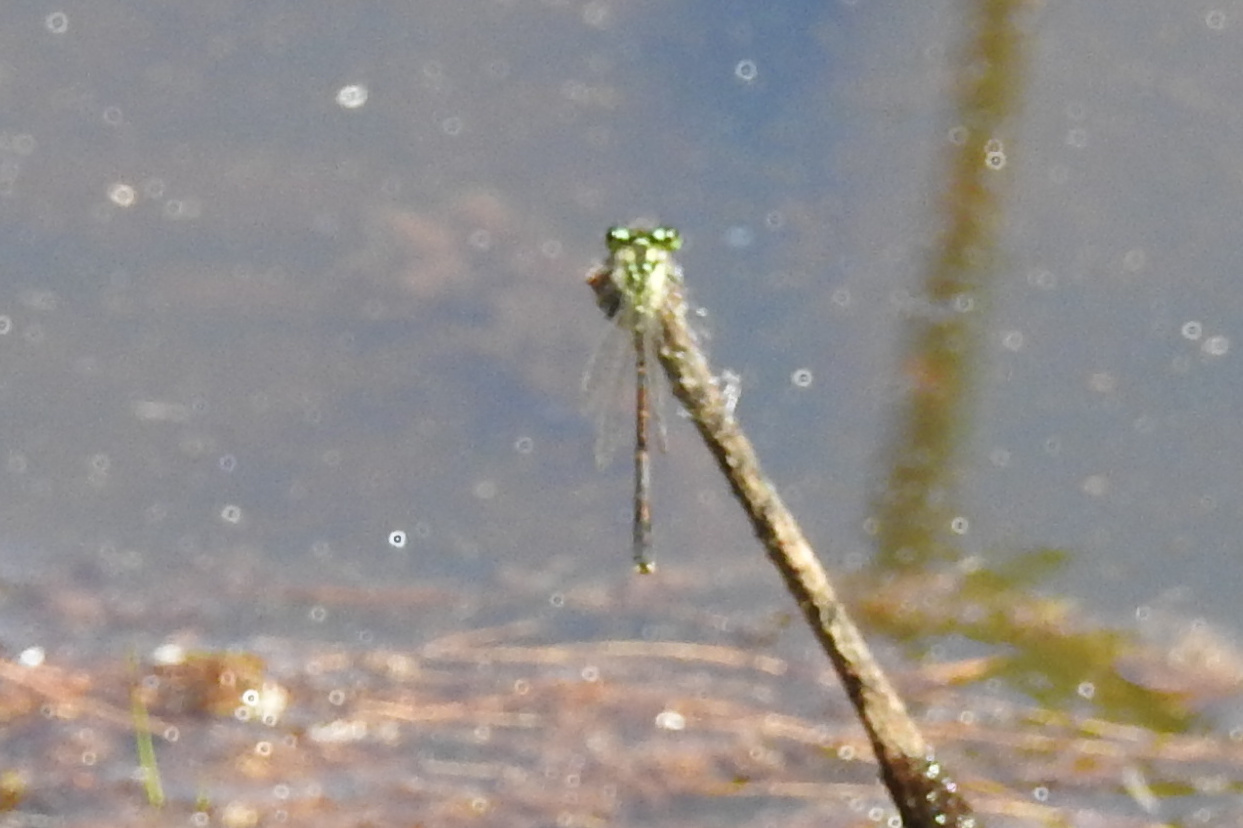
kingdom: Animalia
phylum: Arthropoda
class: Insecta
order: Odonata
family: Coenagrionidae
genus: Ischnura
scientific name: Ischnura posita
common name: Fragile forktail
